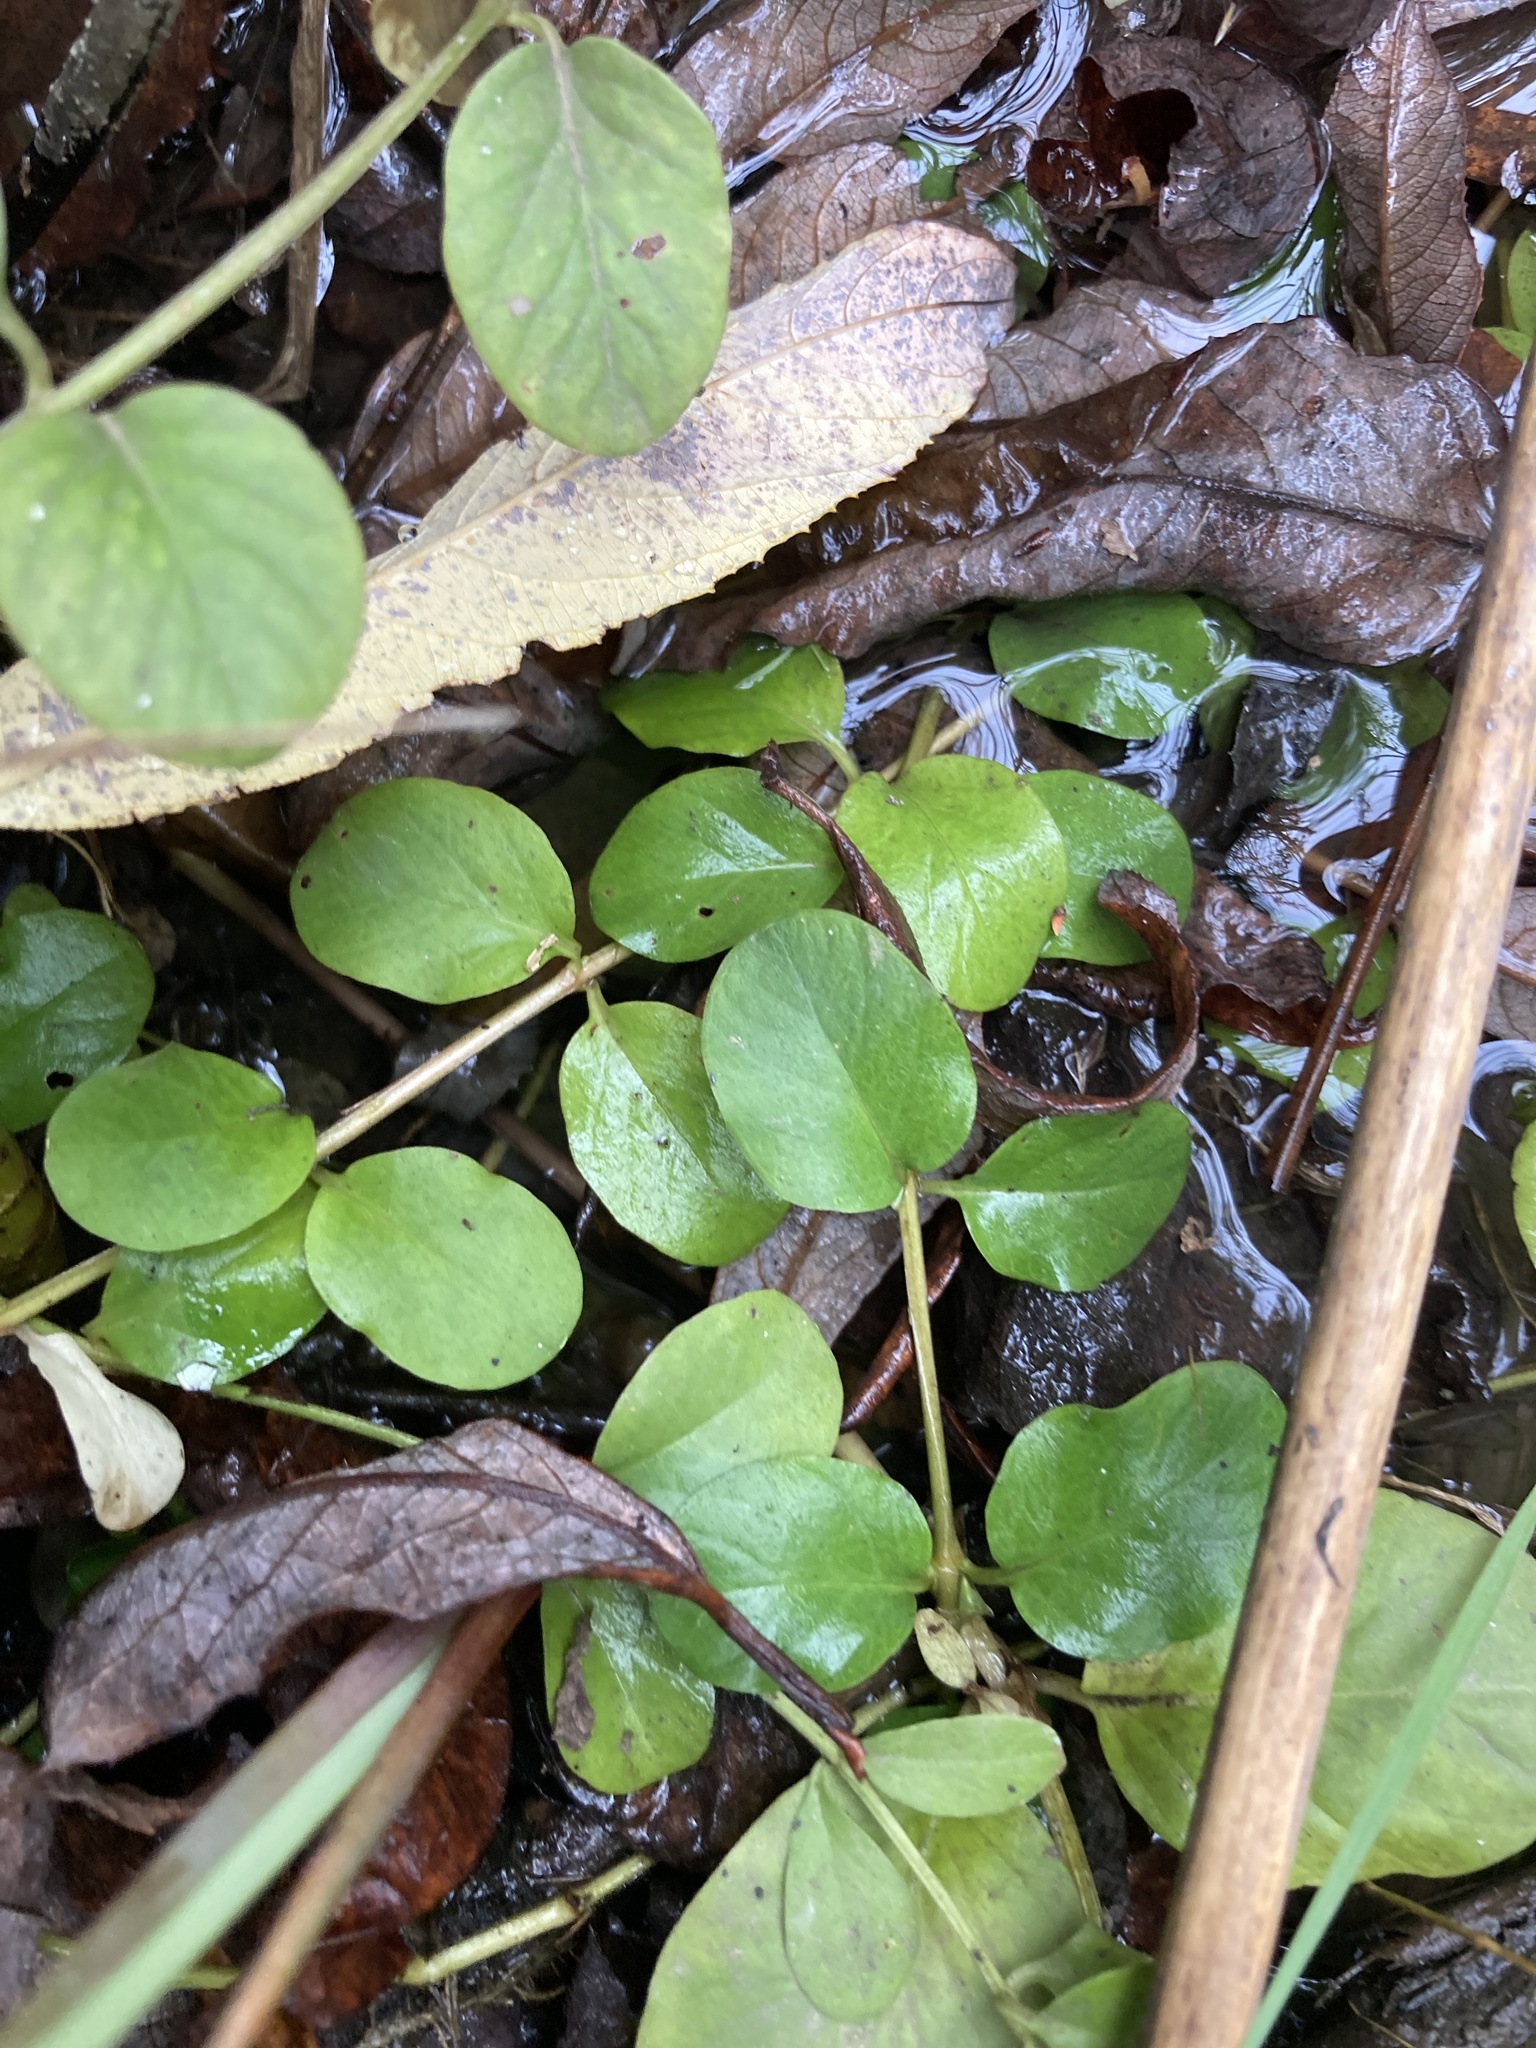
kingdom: Plantae
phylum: Tracheophyta
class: Magnoliopsida
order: Ericales
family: Primulaceae
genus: Lysimachia
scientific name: Lysimachia nummularia
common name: Moneywort
